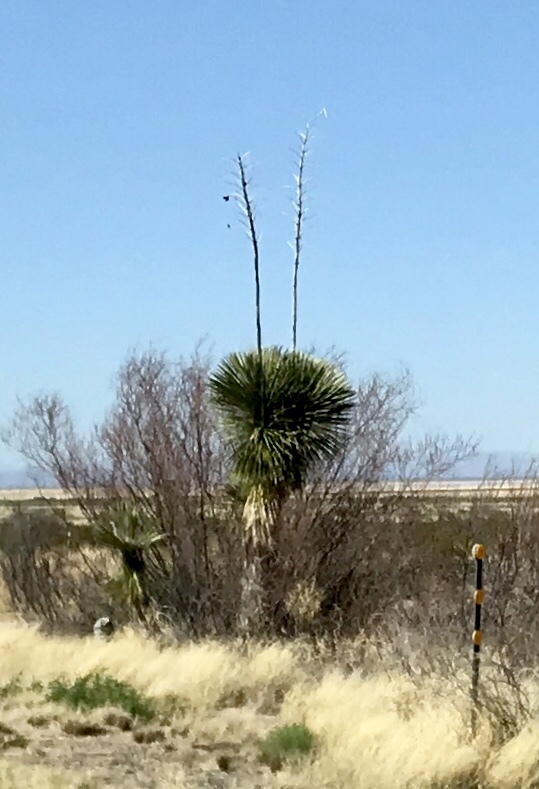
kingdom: Plantae
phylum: Tracheophyta
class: Liliopsida
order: Asparagales
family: Asparagaceae
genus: Yucca
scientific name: Yucca elata
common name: Palmella
